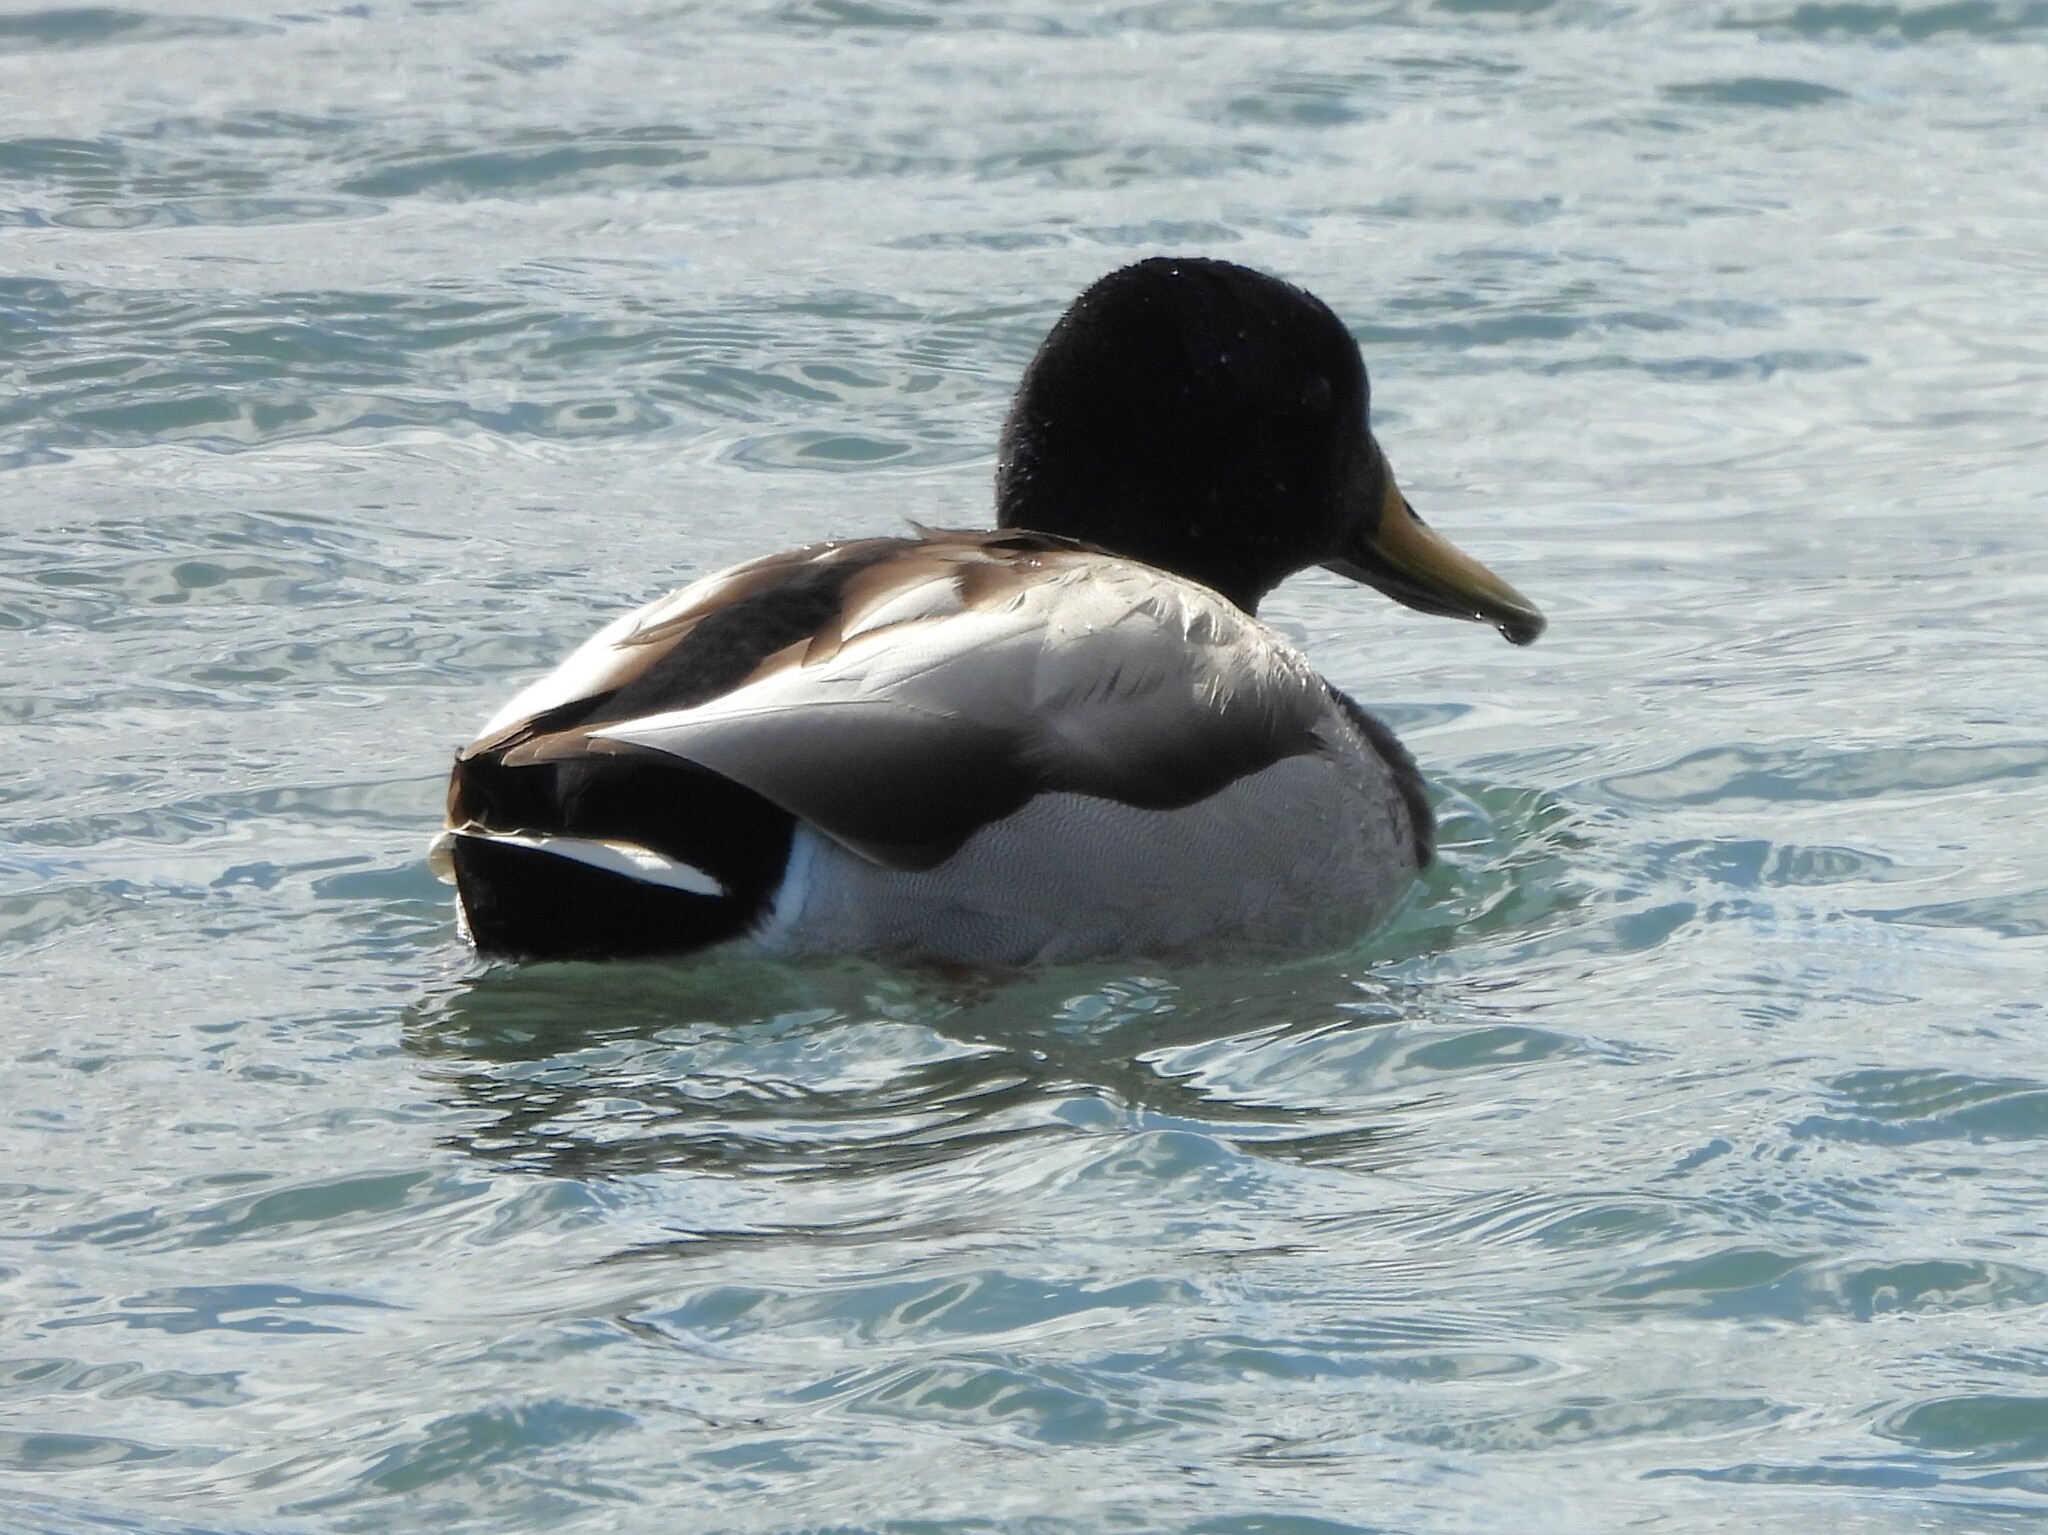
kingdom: Animalia
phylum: Chordata
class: Aves
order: Anseriformes
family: Anatidae
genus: Anas
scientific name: Anas platyrhynchos
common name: Mallard
